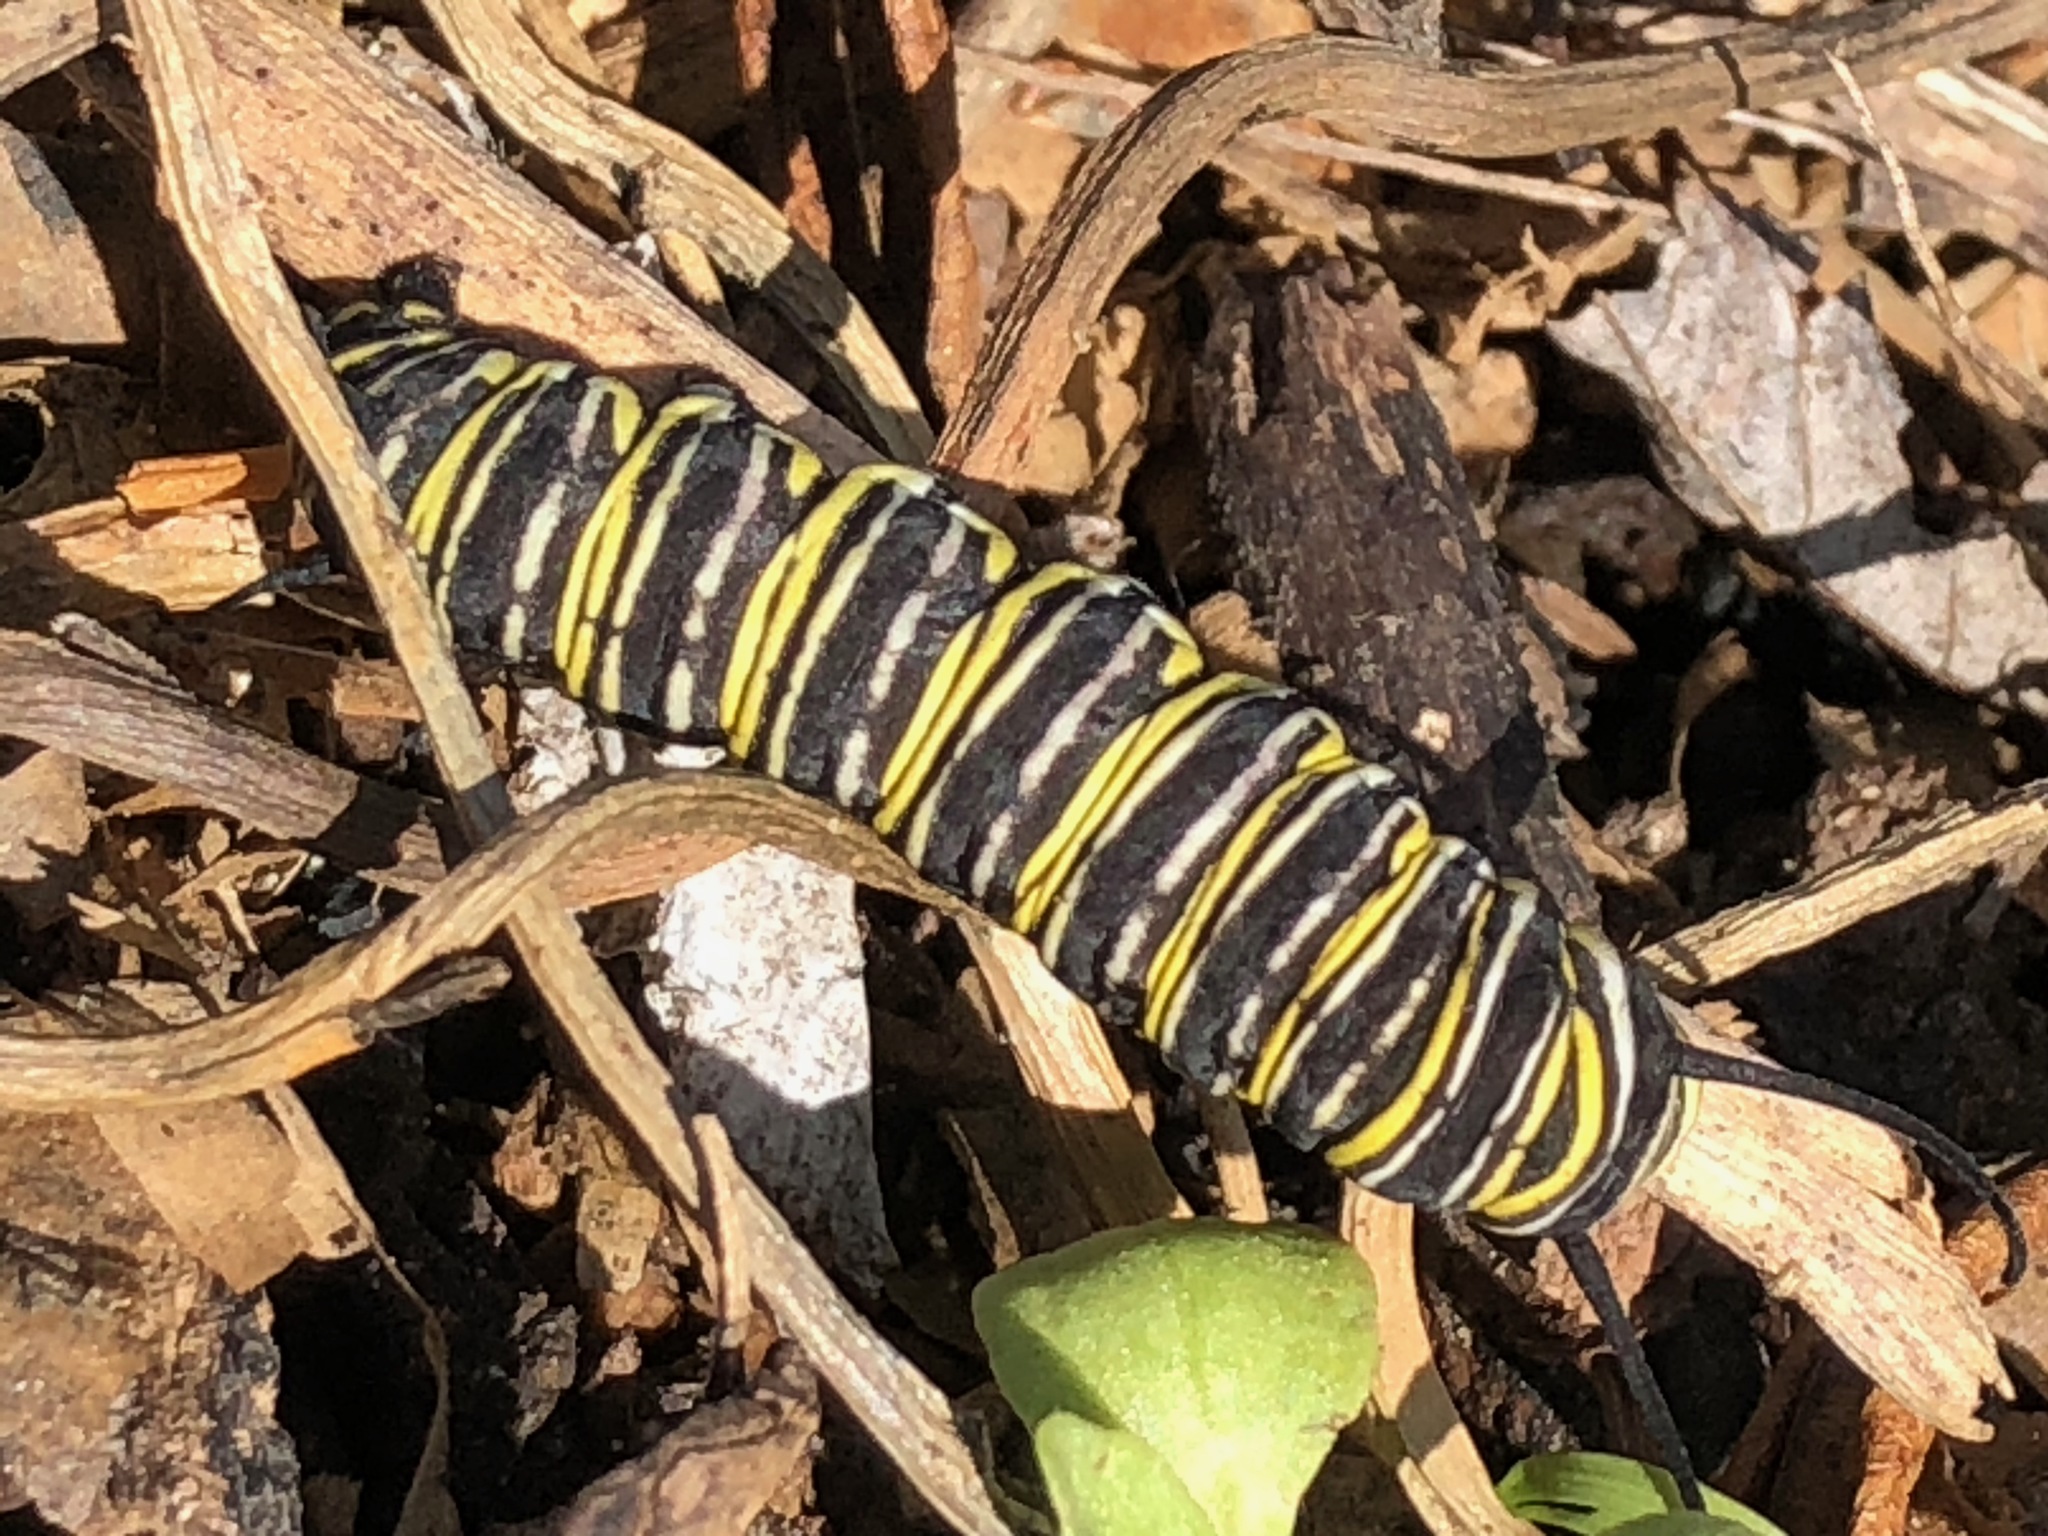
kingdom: Animalia
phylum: Arthropoda
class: Insecta
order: Lepidoptera
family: Nymphalidae
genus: Danaus
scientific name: Danaus plexippus
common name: Monarch
